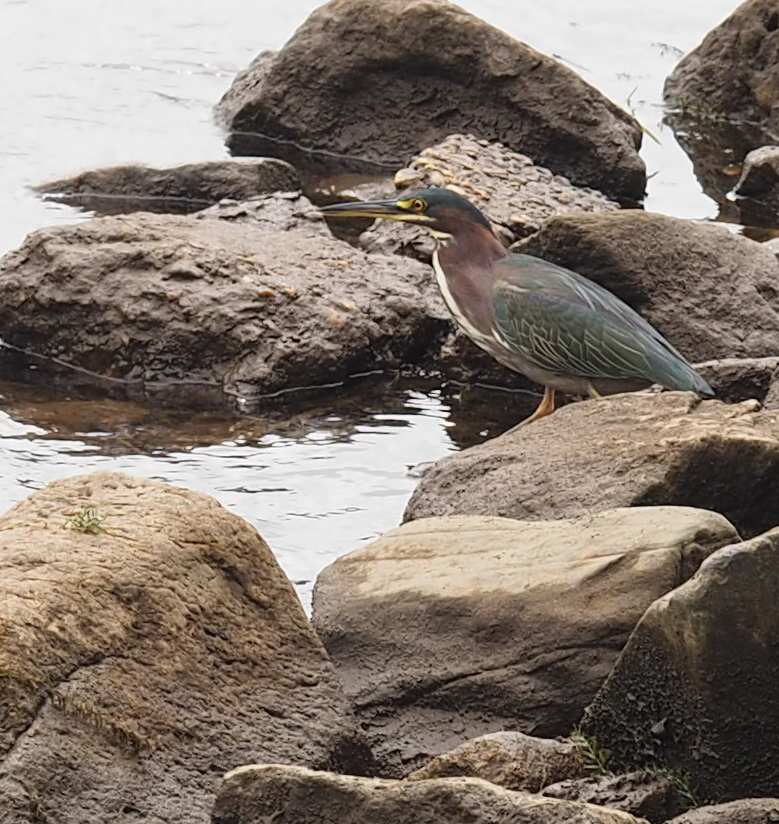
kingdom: Animalia
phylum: Chordata
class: Aves
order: Pelecaniformes
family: Ardeidae
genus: Butorides
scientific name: Butorides virescens
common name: Green heron
